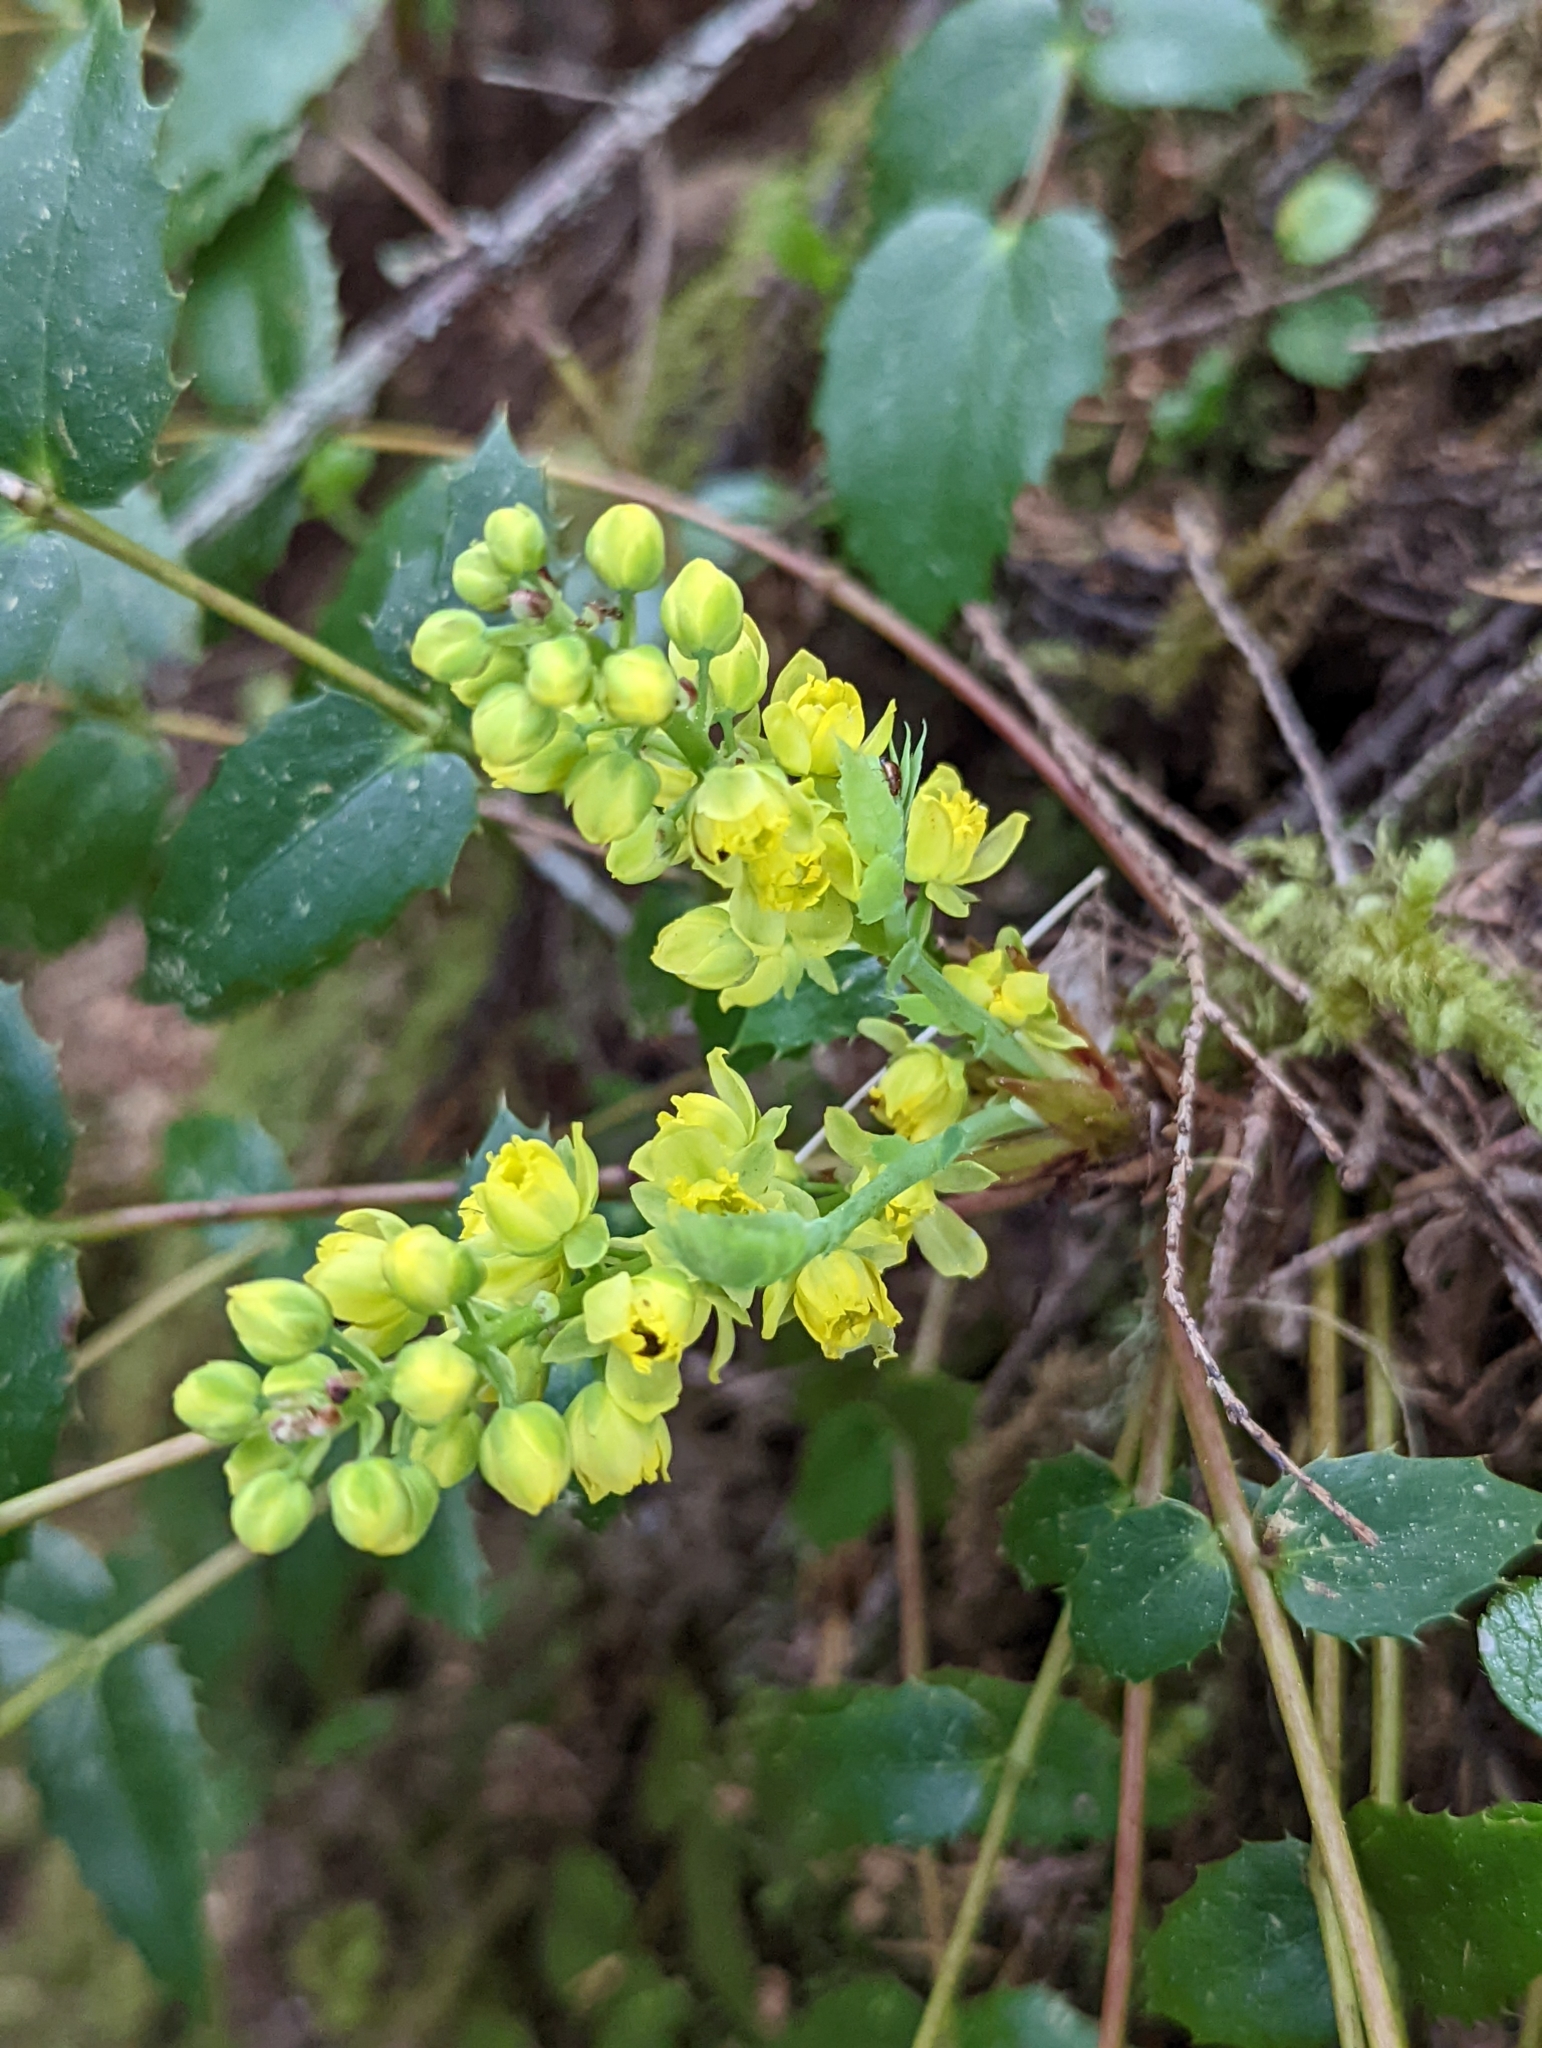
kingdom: Plantae
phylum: Tracheophyta
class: Magnoliopsida
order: Ranunculales
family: Berberidaceae
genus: Mahonia
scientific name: Mahonia nervosa
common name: Cascade oregon-grape
